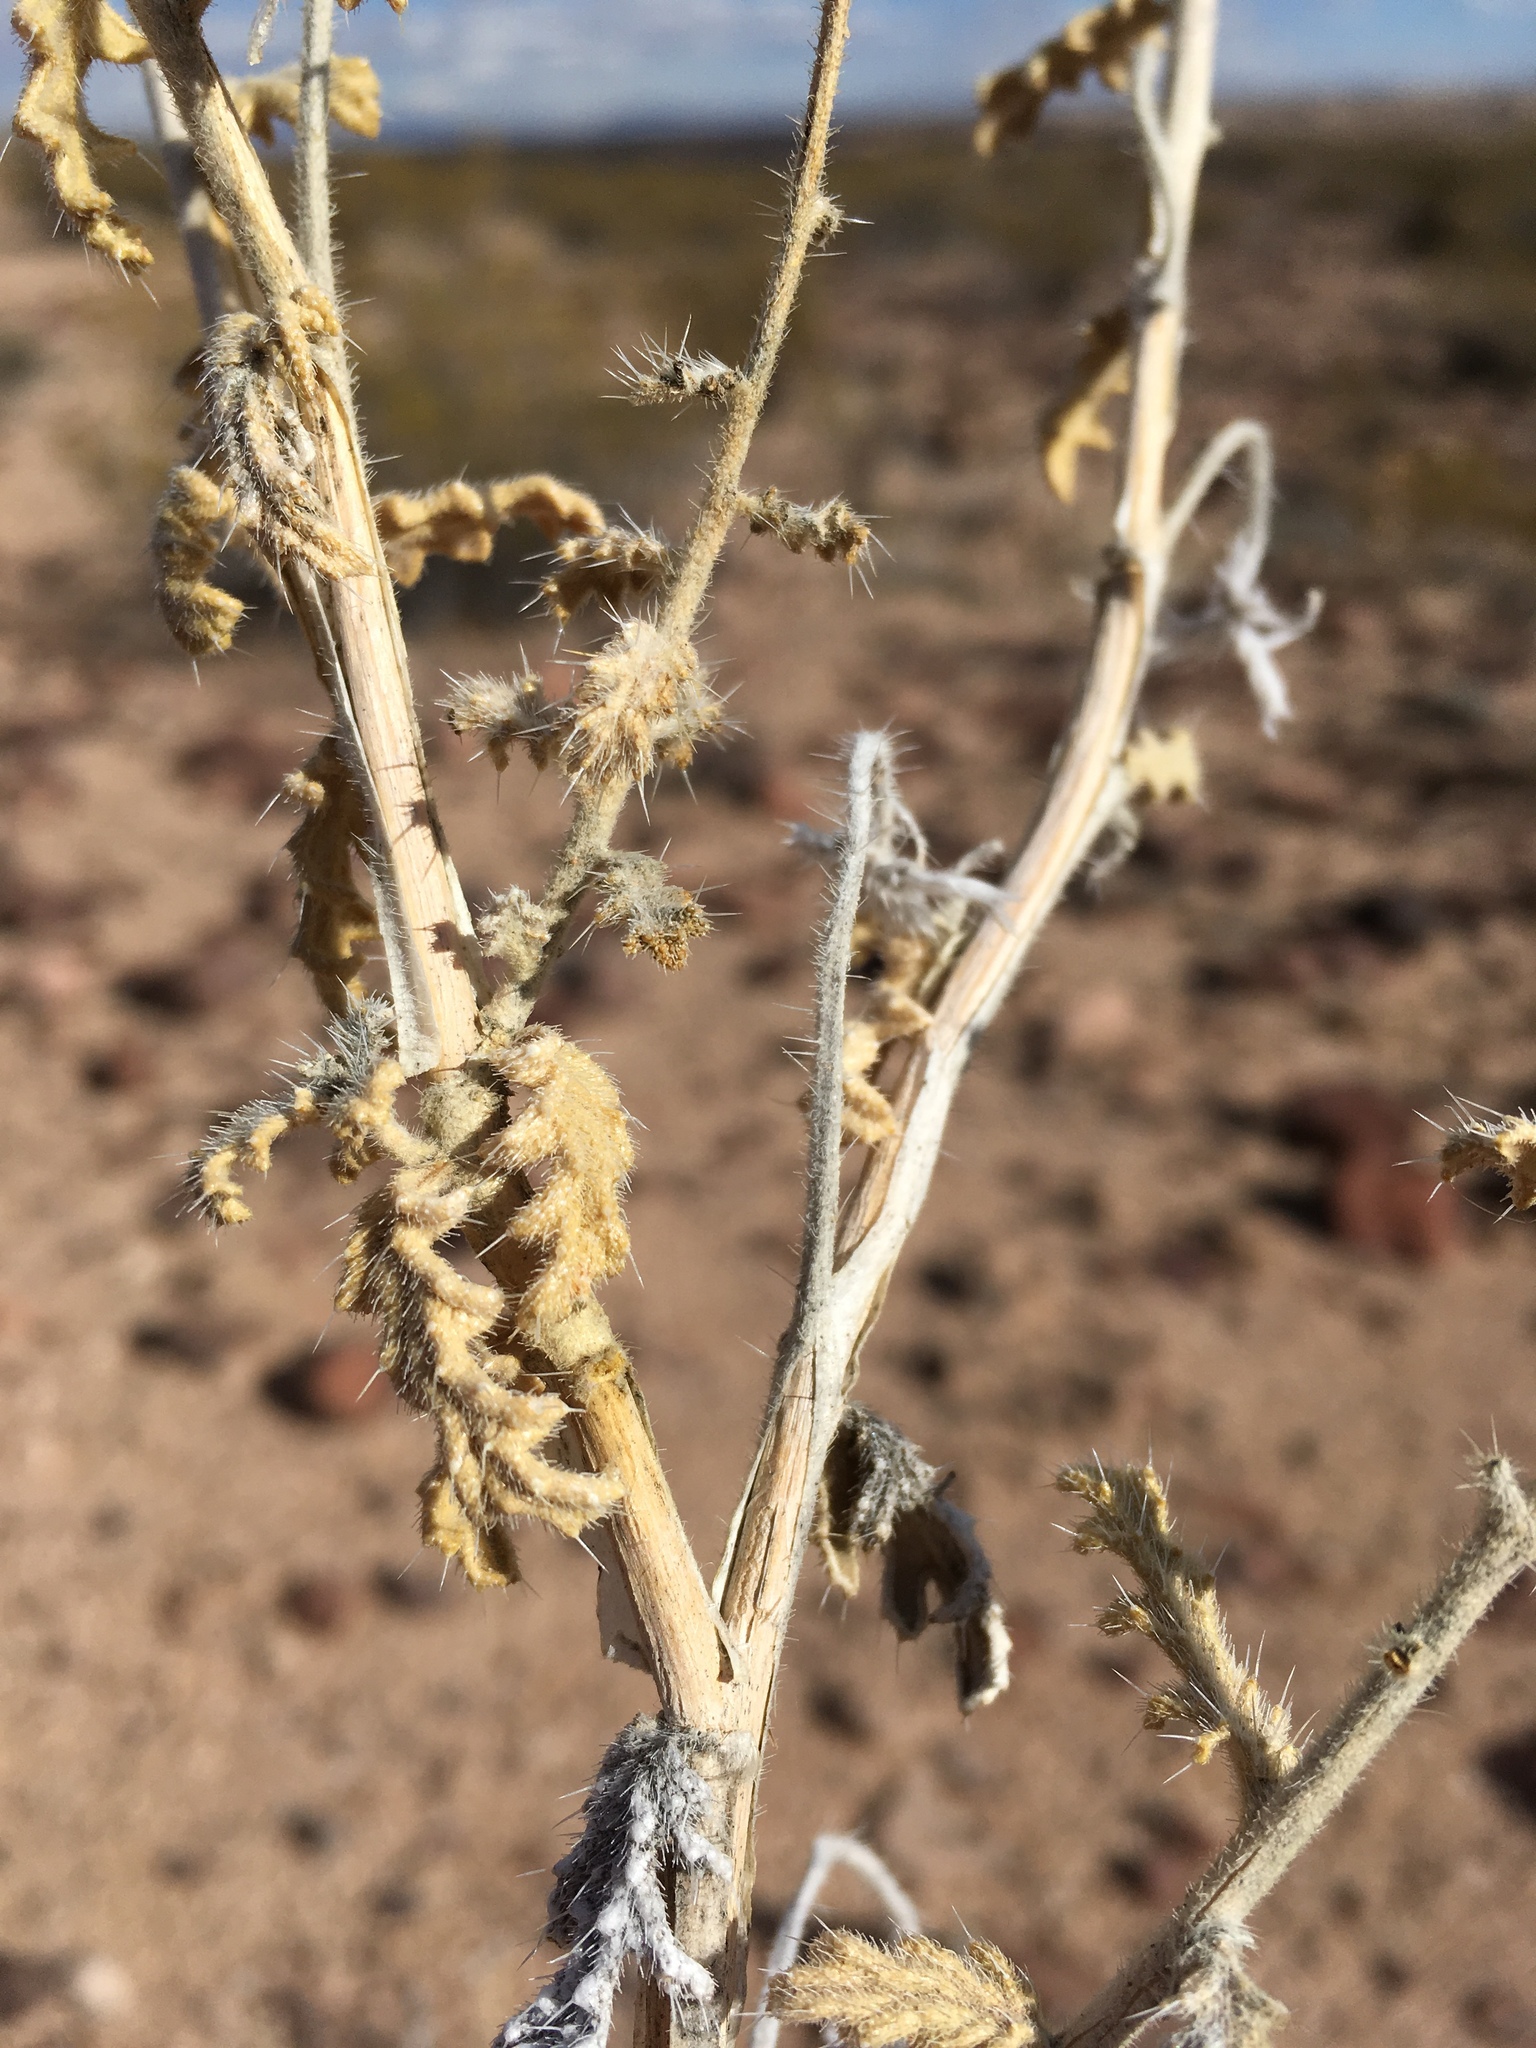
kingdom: Plantae
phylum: Tracheophyta
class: Magnoliopsida
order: Cornales
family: Loasaceae
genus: Cevallia
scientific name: Cevallia sinuata
